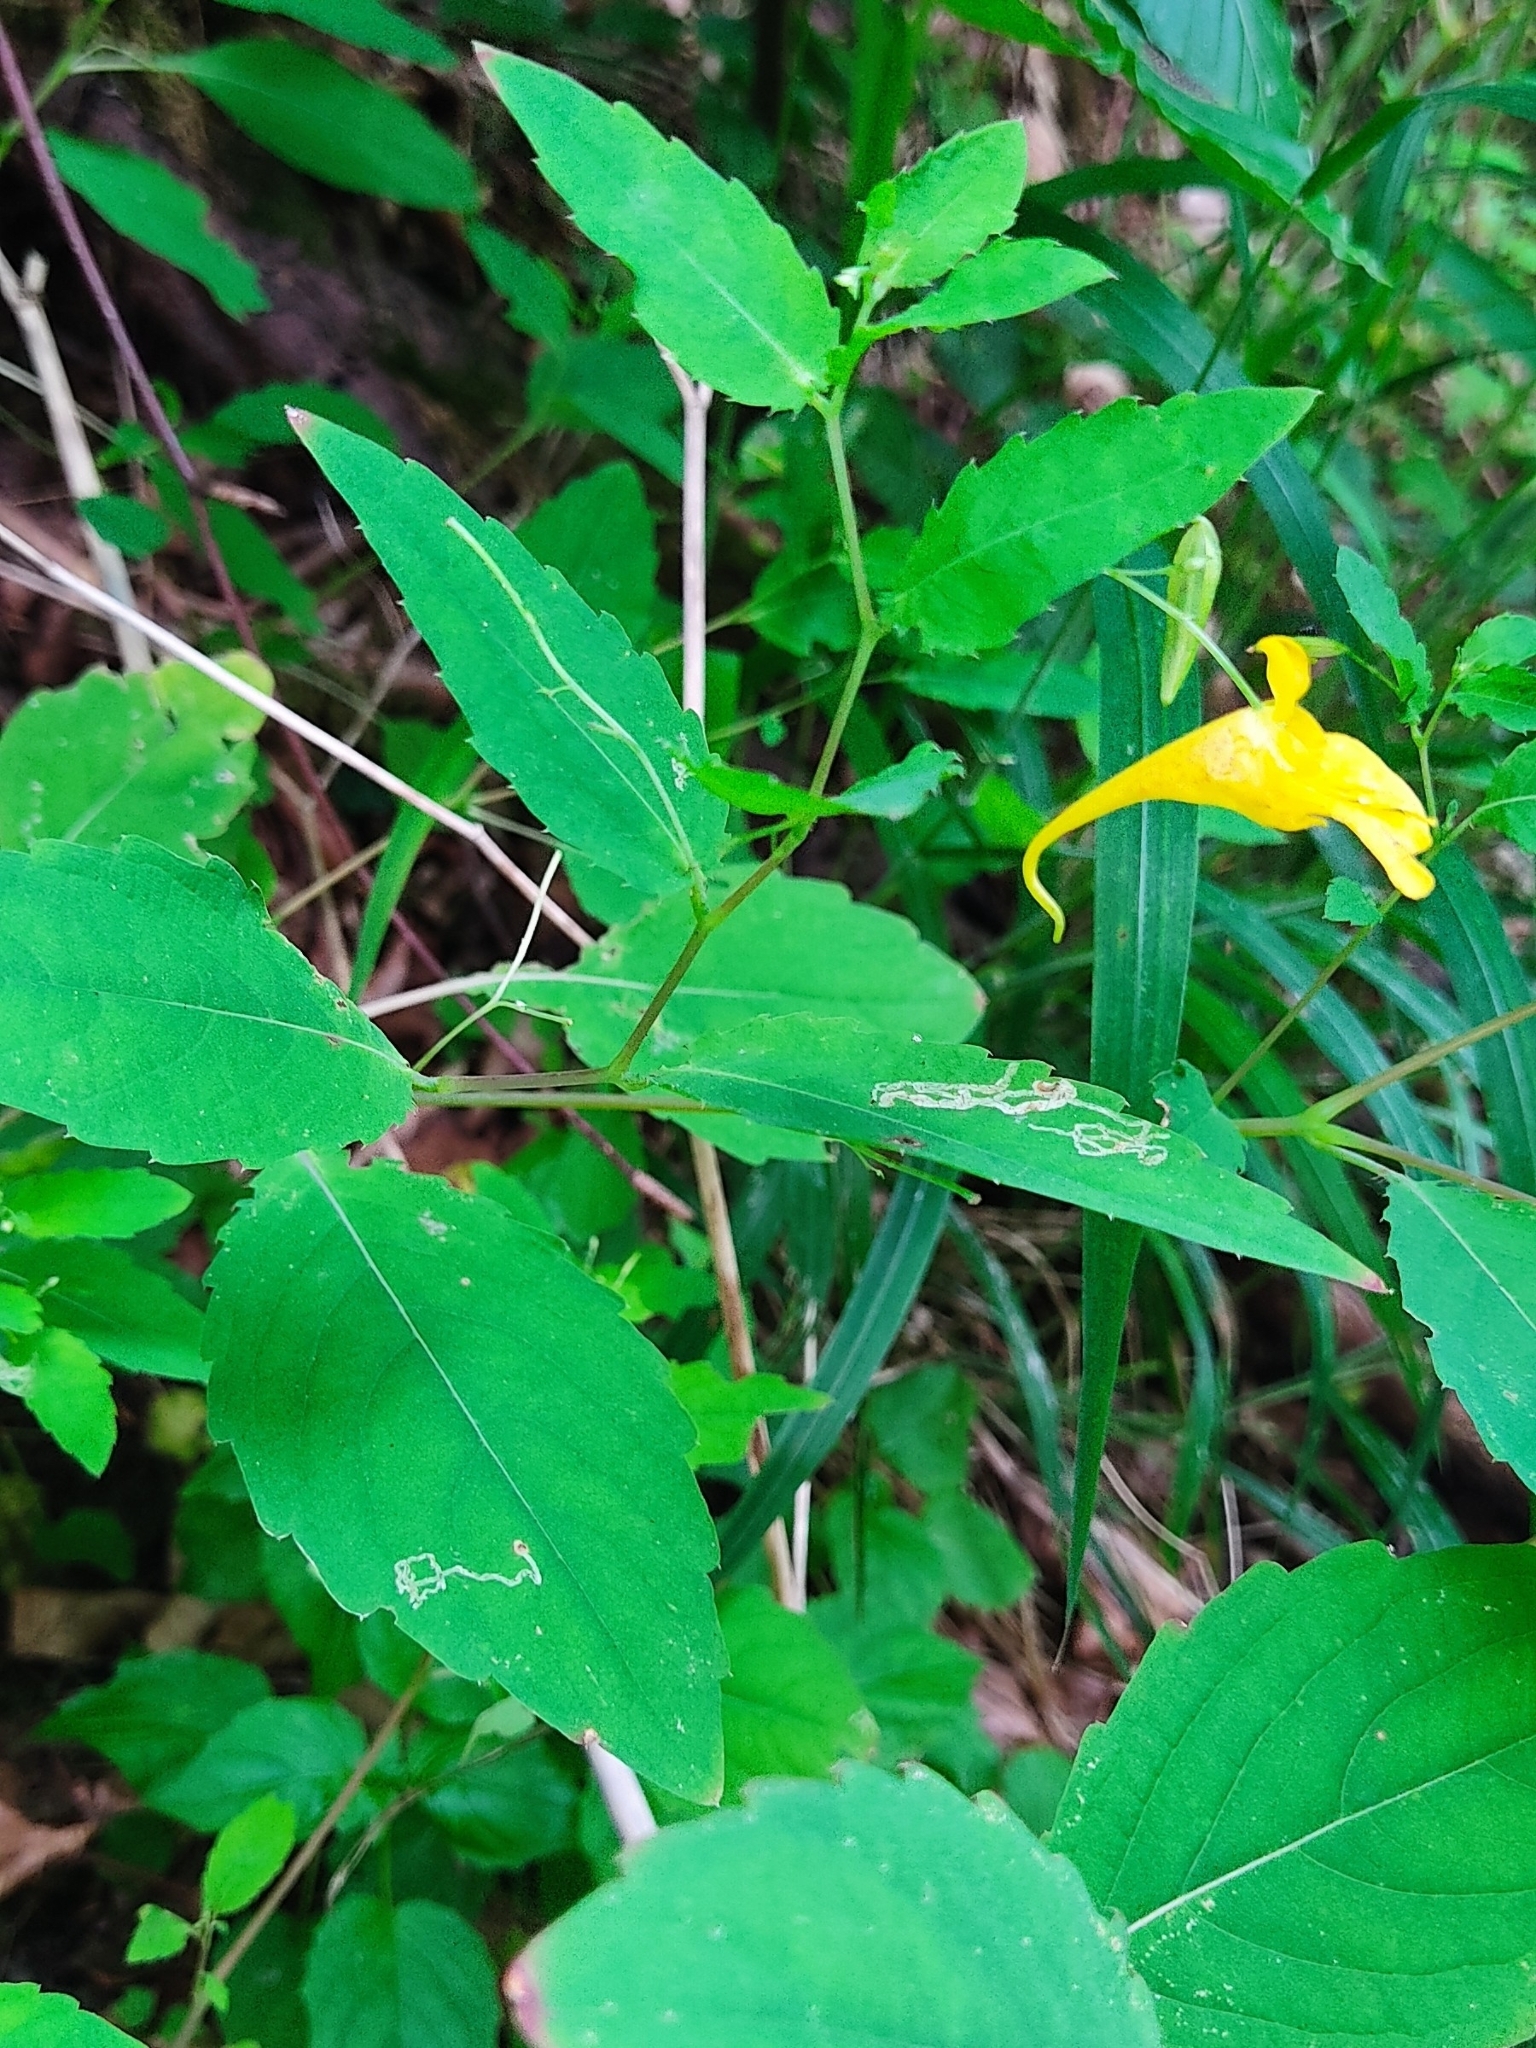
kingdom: Plantae
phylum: Tracheophyta
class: Magnoliopsida
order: Ericales
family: Balsaminaceae
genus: Impatiens
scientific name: Impatiens noli-tangere
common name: Touch-me-not balsam
